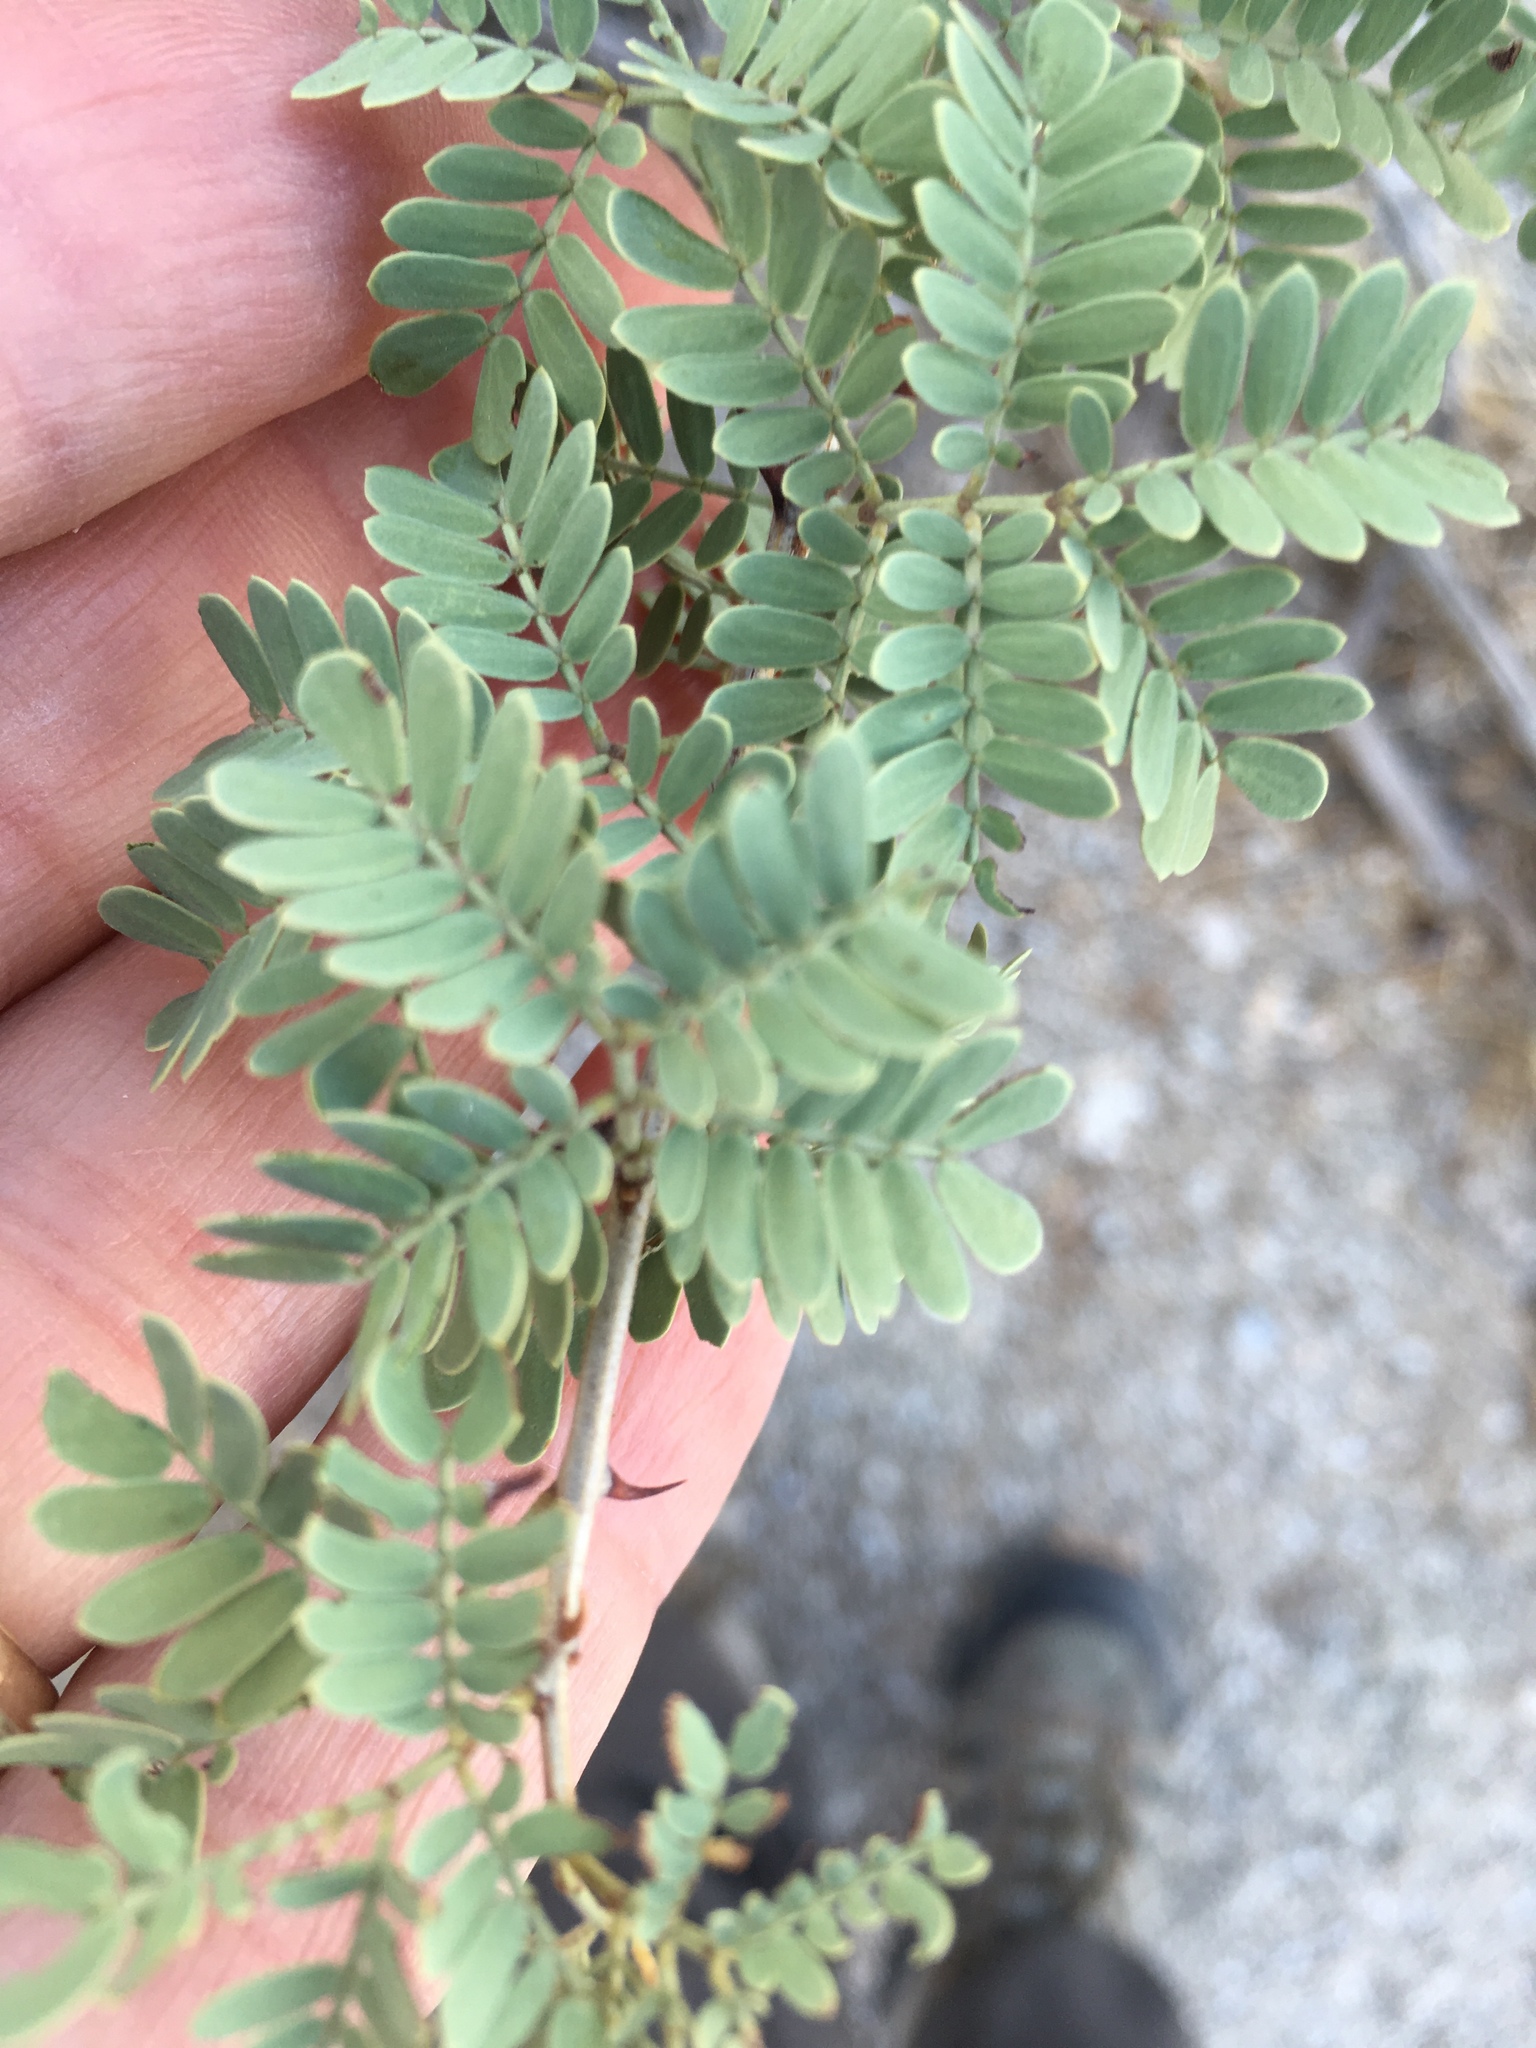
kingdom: Plantae
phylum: Tracheophyta
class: Magnoliopsida
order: Fabales
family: Fabaceae
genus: Senegalia
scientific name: Senegalia greggii
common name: Texas-mimosa
